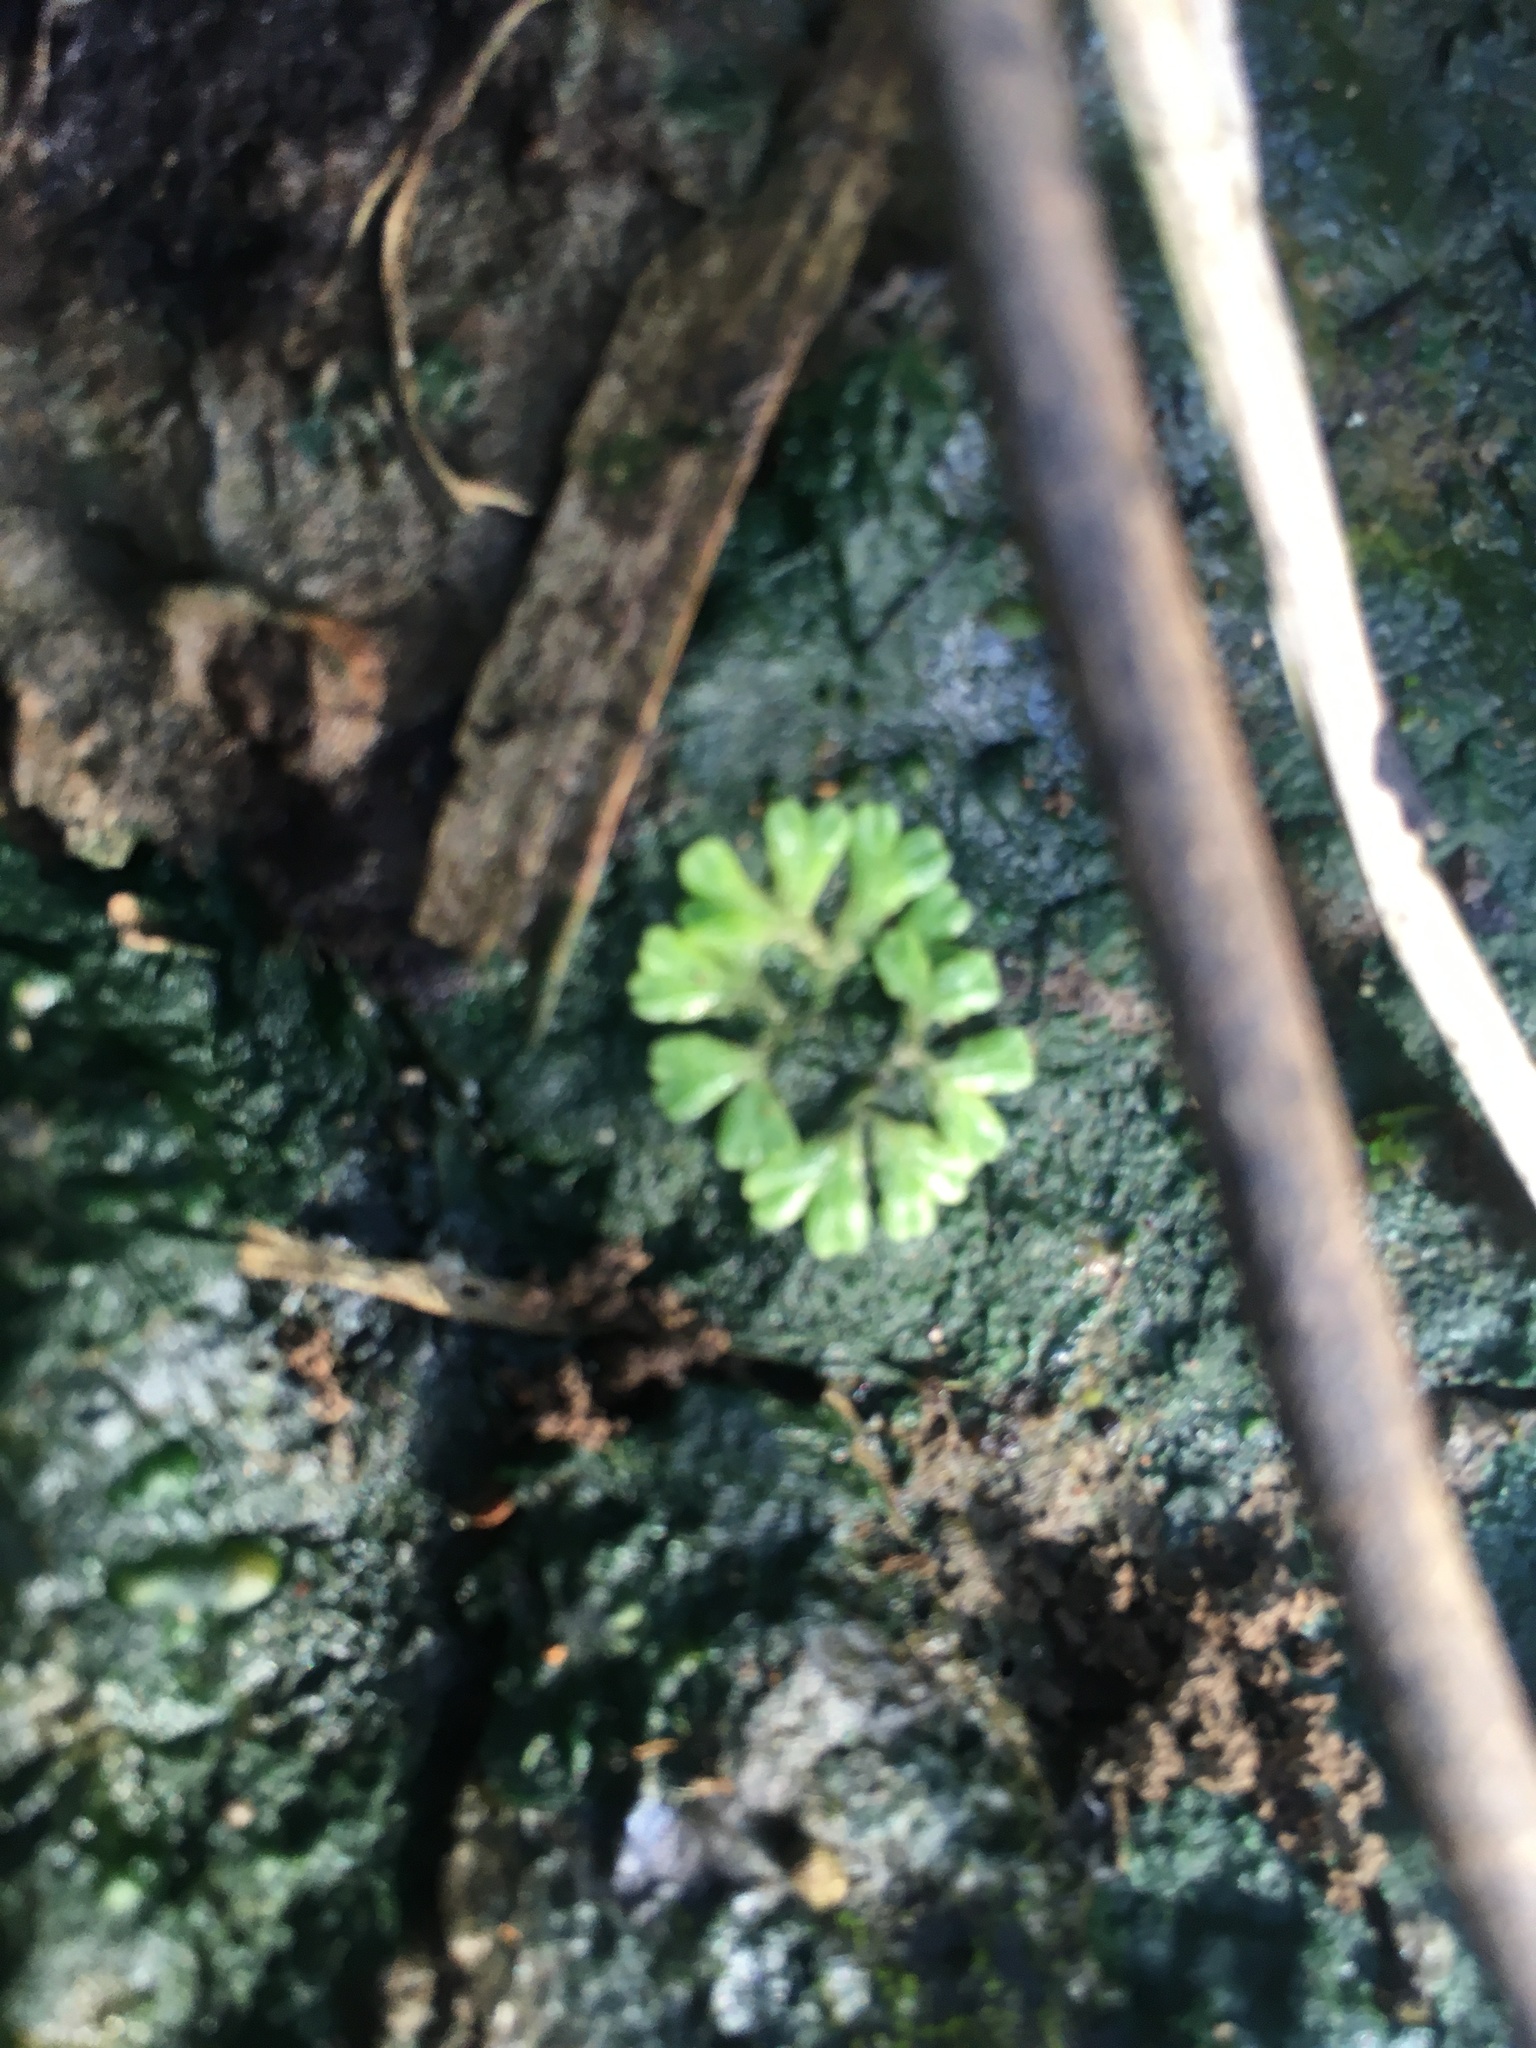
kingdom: Plantae
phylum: Marchantiophyta
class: Marchantiopsida
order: Marchantiales
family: Ricciaceae
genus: Ricciocarpos
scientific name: Ricciocarpos natans
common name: Purple-fringed liverwort
